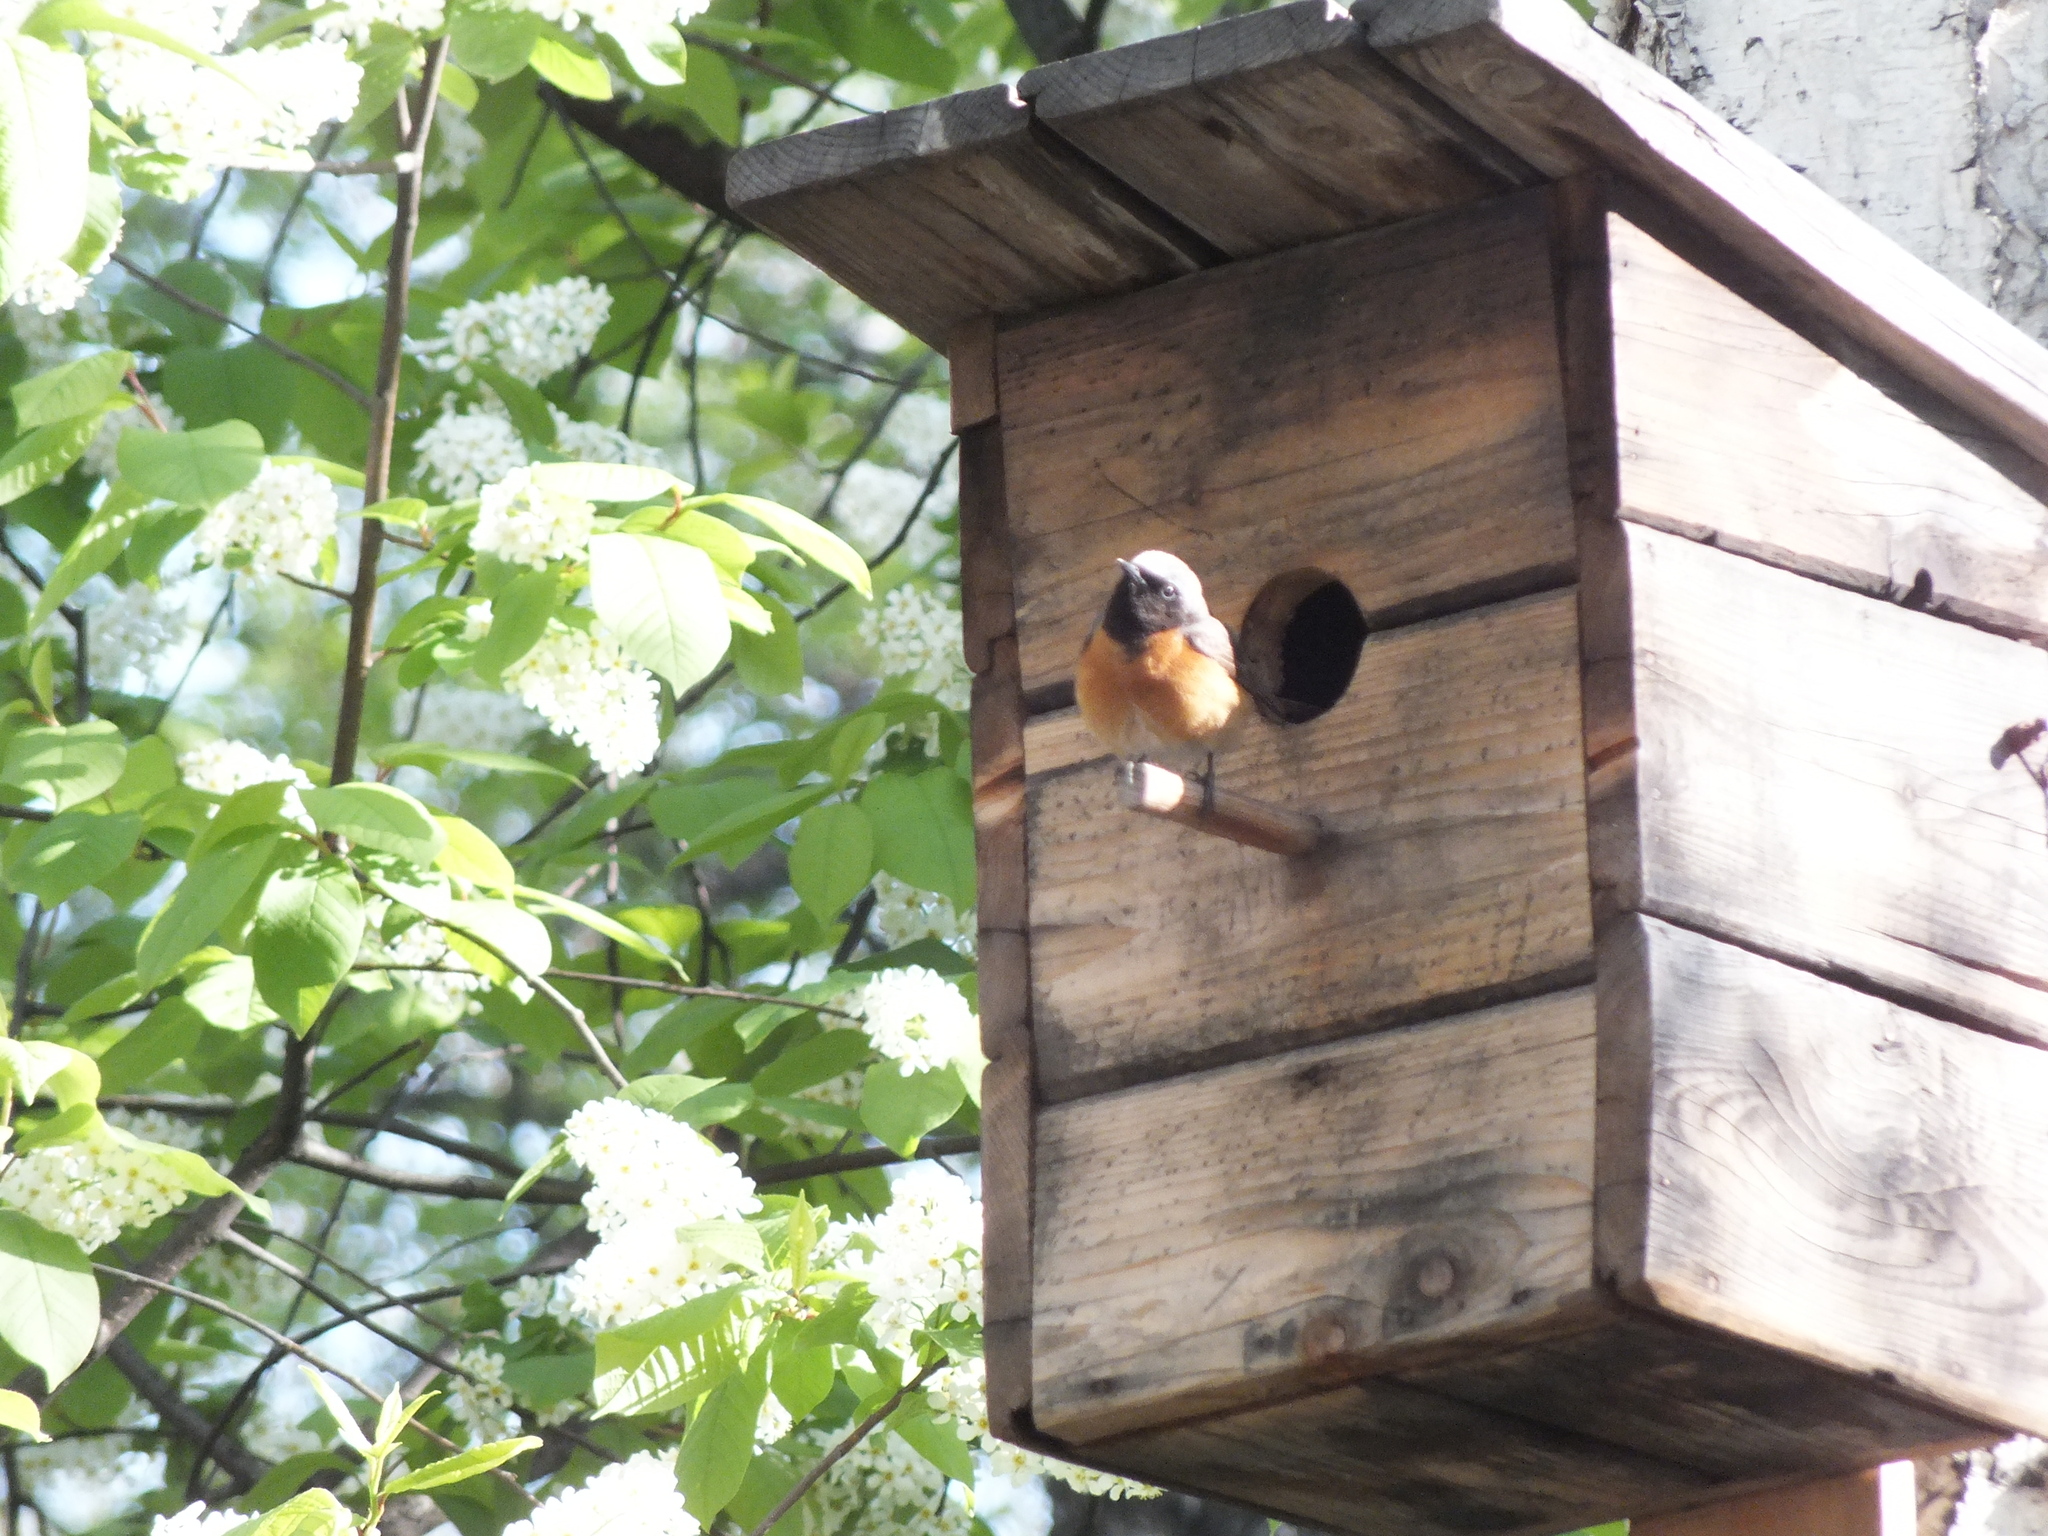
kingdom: Animalia
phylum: Chordata
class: Aves
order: Passeriformes
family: Muscicapidae
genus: Phoenicurus
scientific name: Phoenicurus phoenicurus
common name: Common redstart
